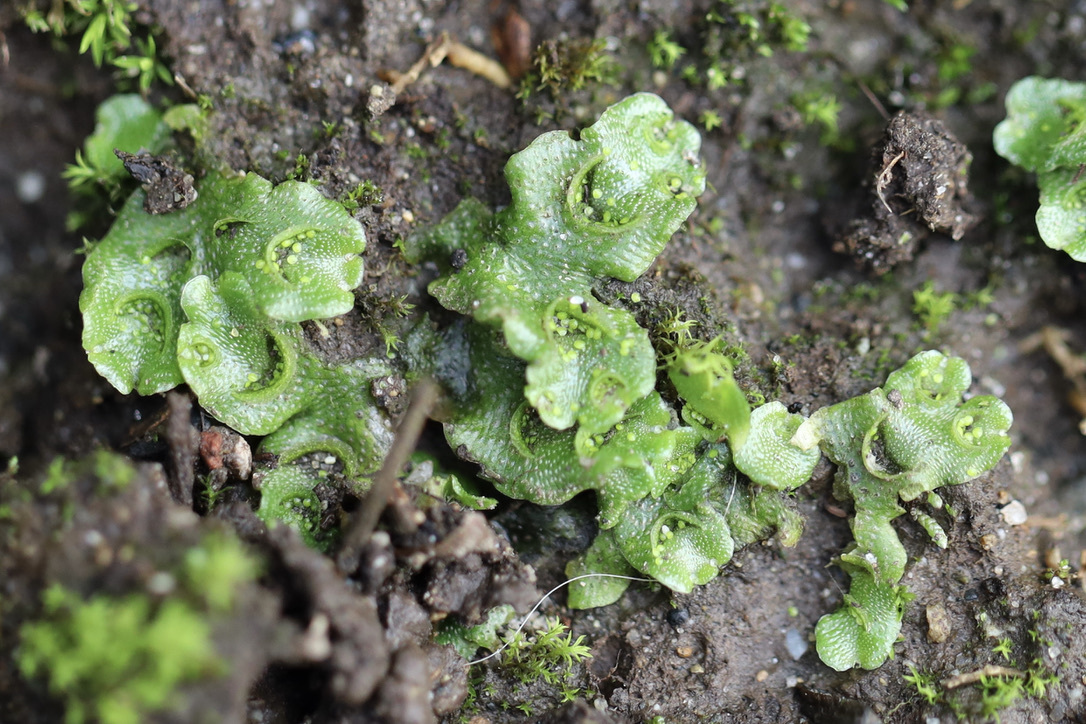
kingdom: Plantae
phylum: Marchantiophyta
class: Marchantiopsida
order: Lunulariales
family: Lunulariaceae
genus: Lunularia
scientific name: Lunularia cruciata
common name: Crescent-cup liverwort
